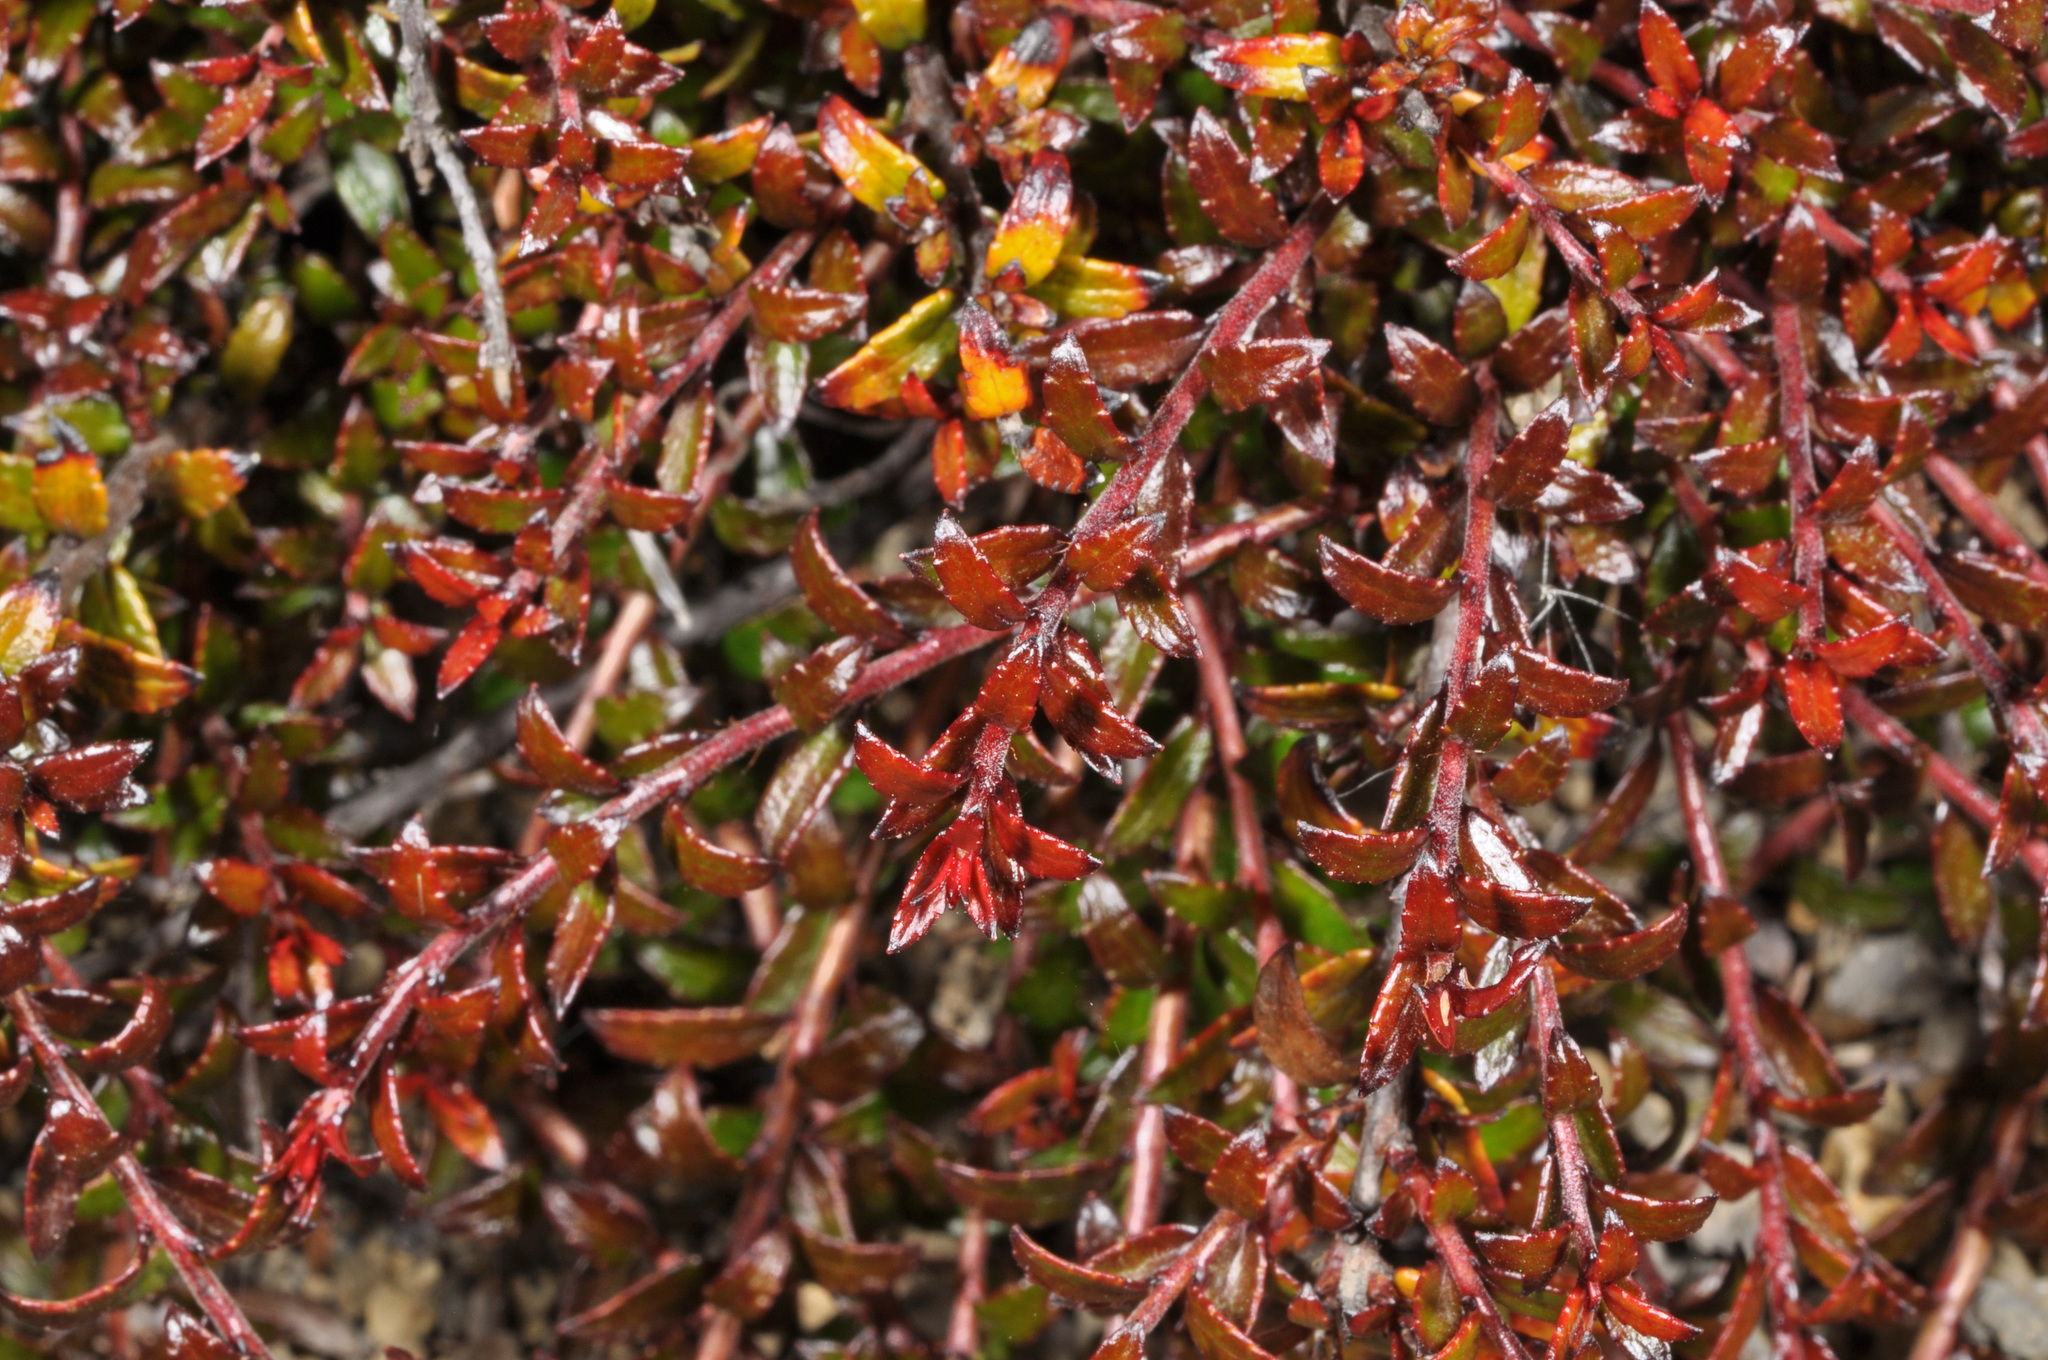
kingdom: Plantae
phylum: Tracheophyta
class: Magnoliopsida
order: Ericales
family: Ericaceae
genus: Gaultheria
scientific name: Gaultheria macrostigma
